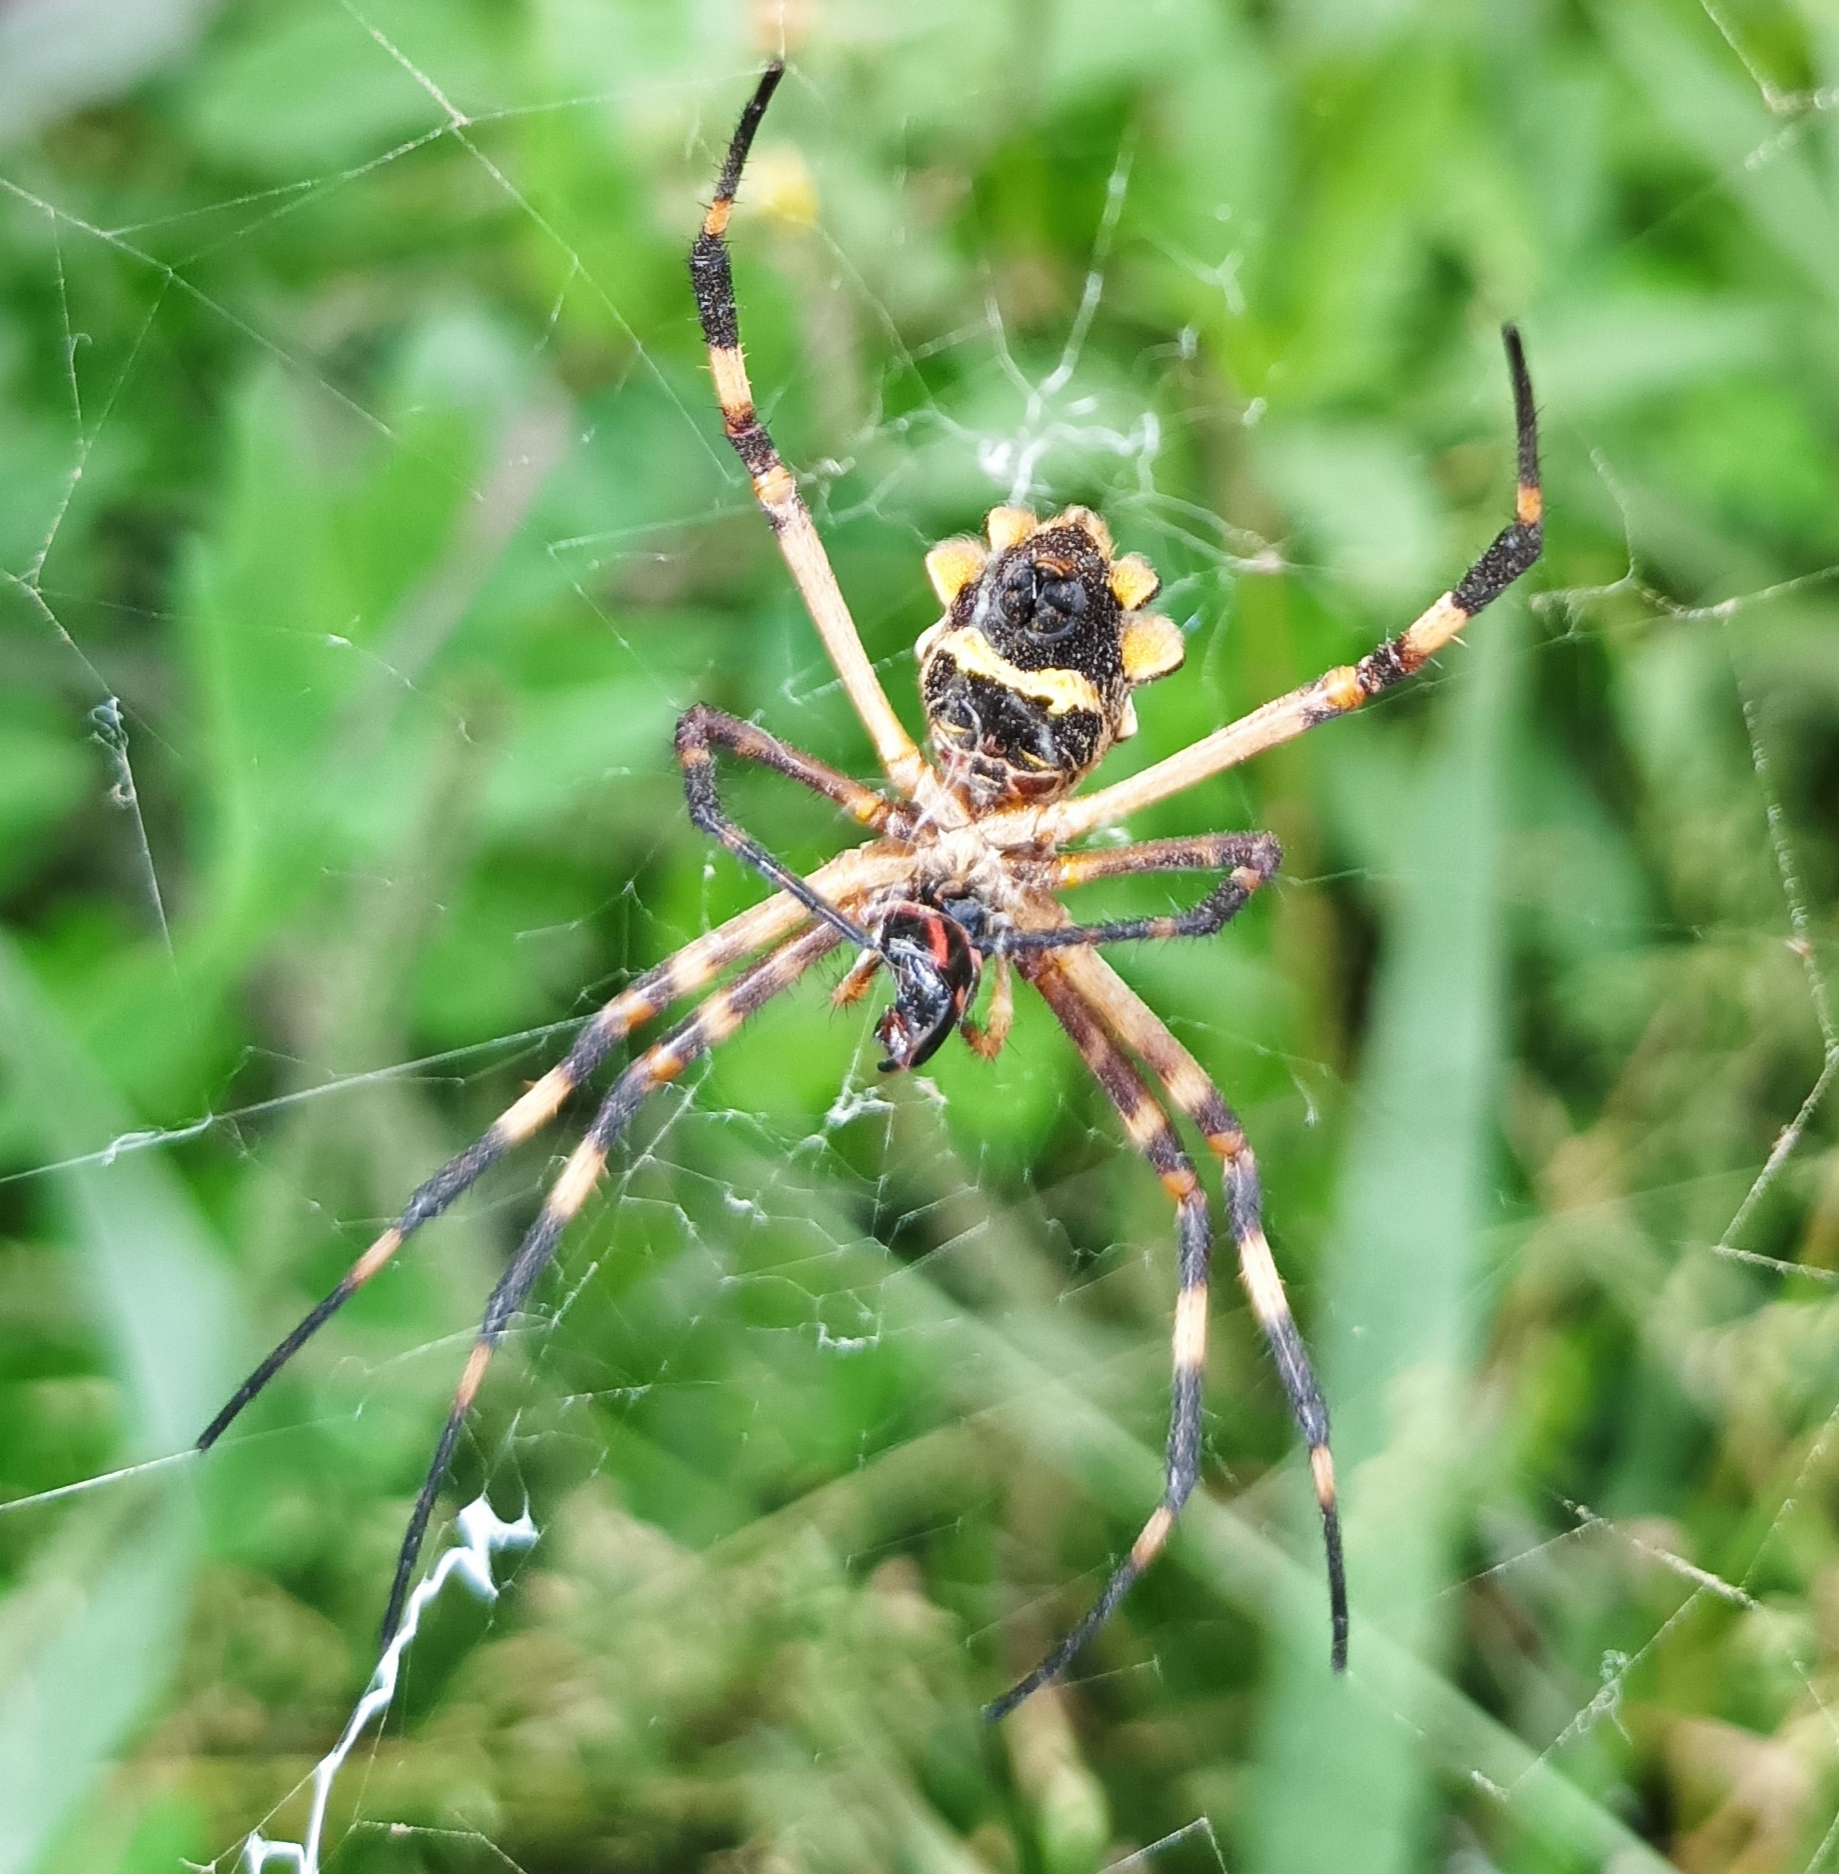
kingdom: Animalia
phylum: Arthropoda
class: Arachnida
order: Araneae
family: Araneidae
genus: Argiope
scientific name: Argiope argentata
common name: Orb weavers
